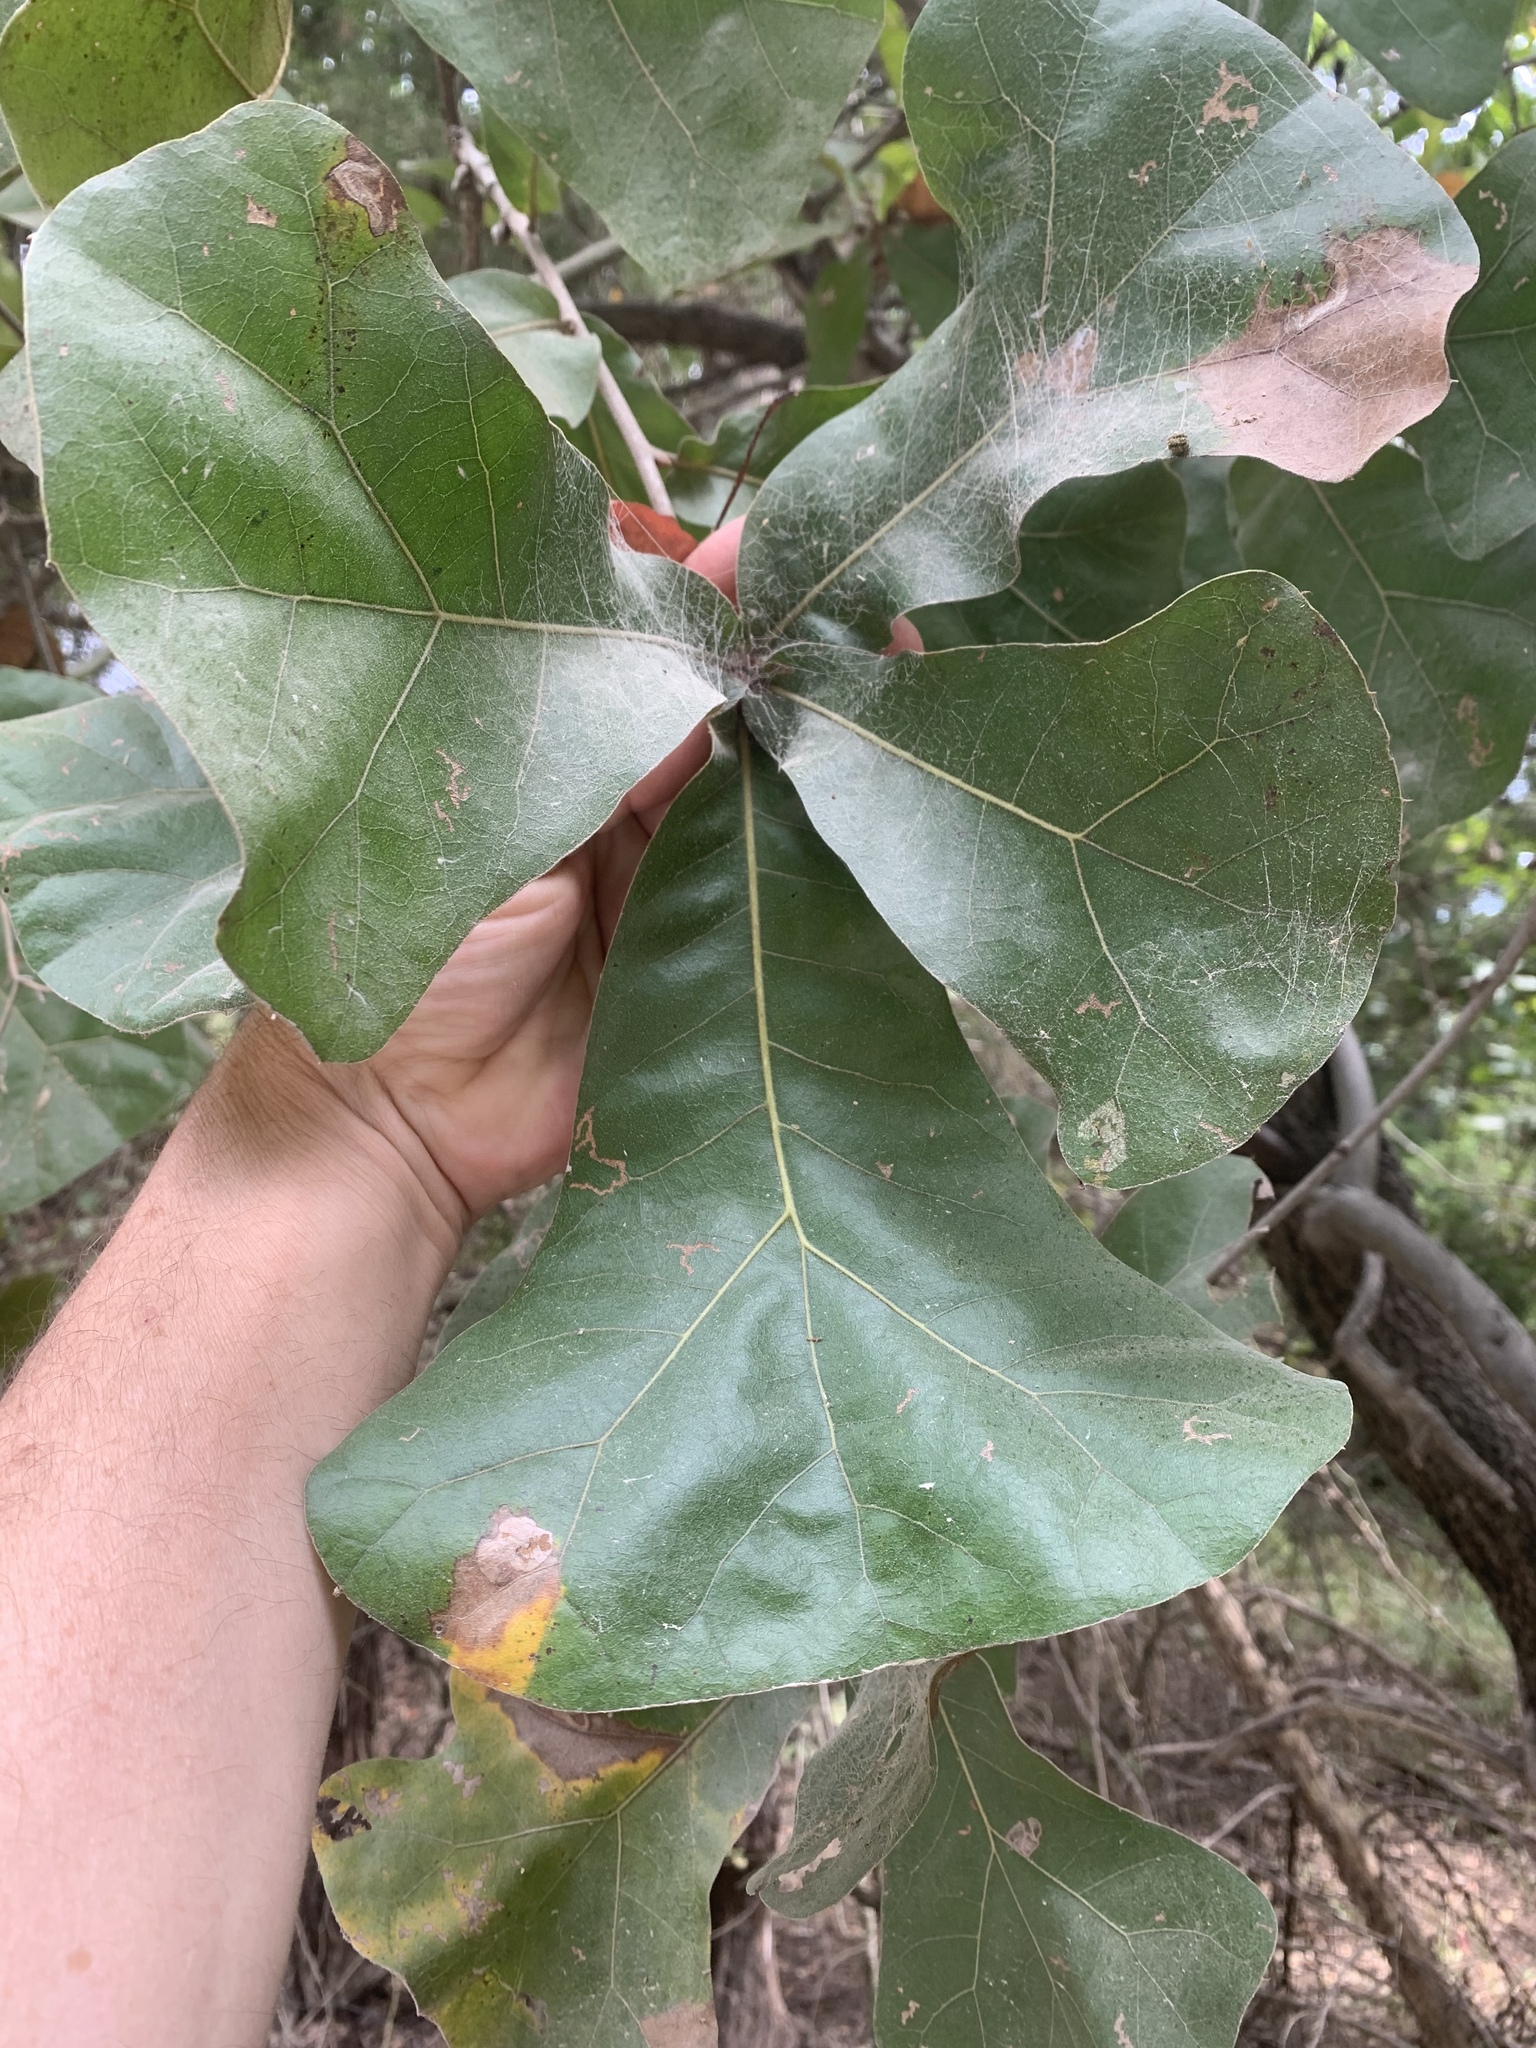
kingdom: Plantae
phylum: Tracheophyta
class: Magnoliopsida
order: Fagales
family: Fagaceae
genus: Quercus
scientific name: Quercus marilandica
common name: Blackjack oak
